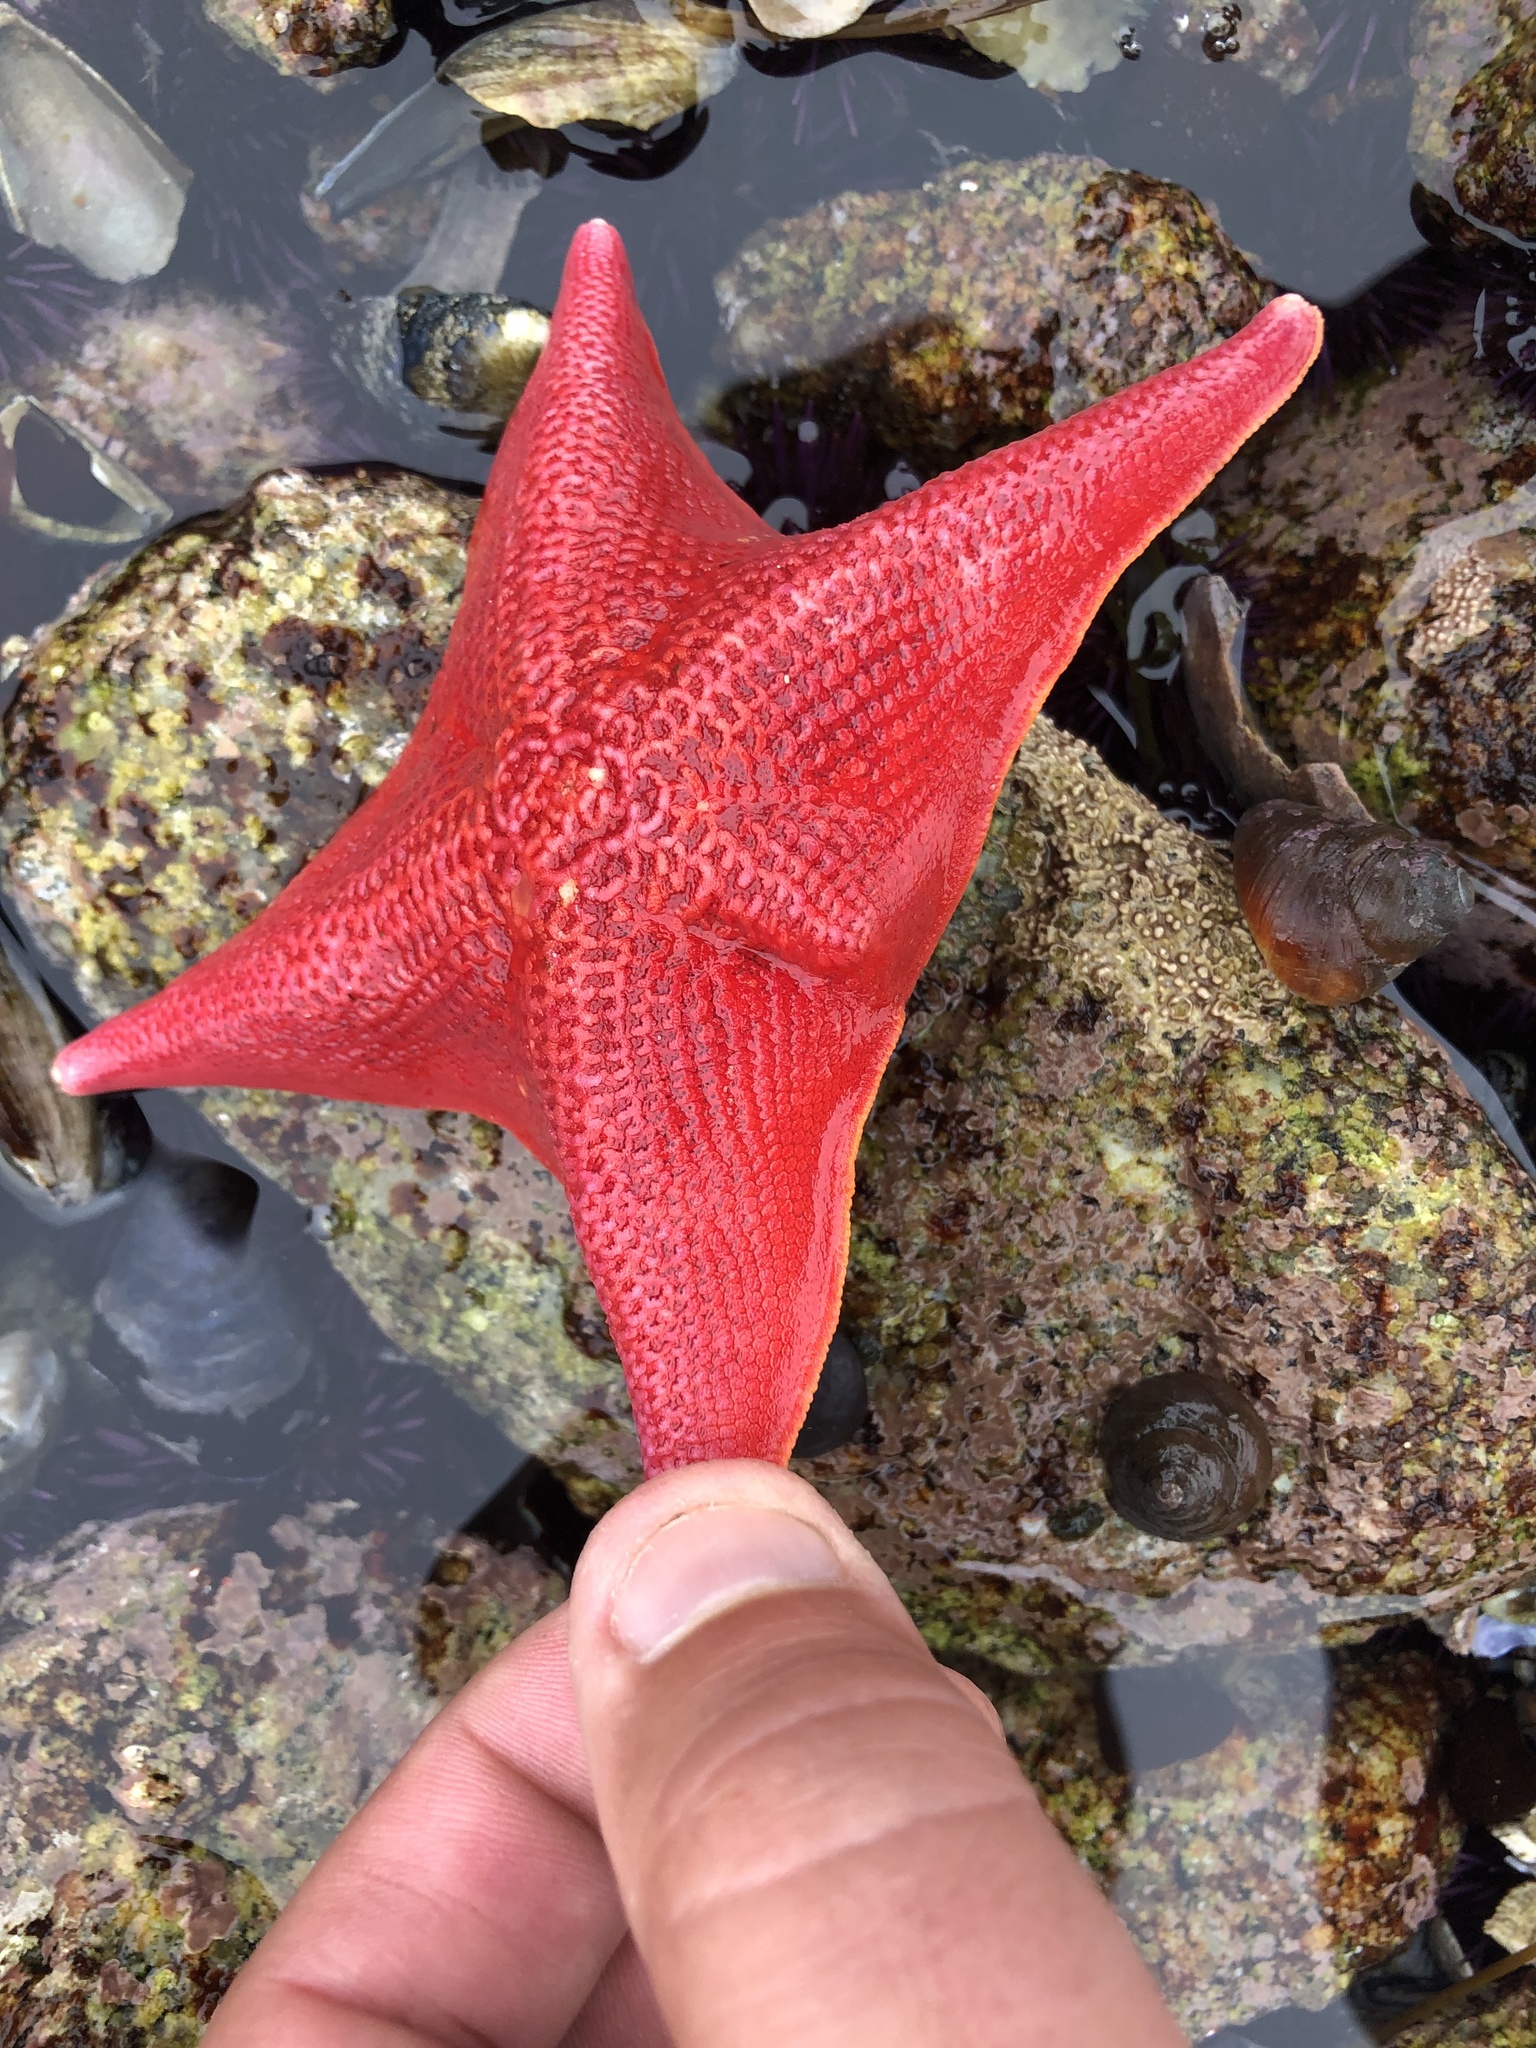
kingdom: Animalia
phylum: Echinodermata
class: Asteroidea
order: Valvatida
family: Asterinidae
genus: Patiria
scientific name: Patiria miniata
